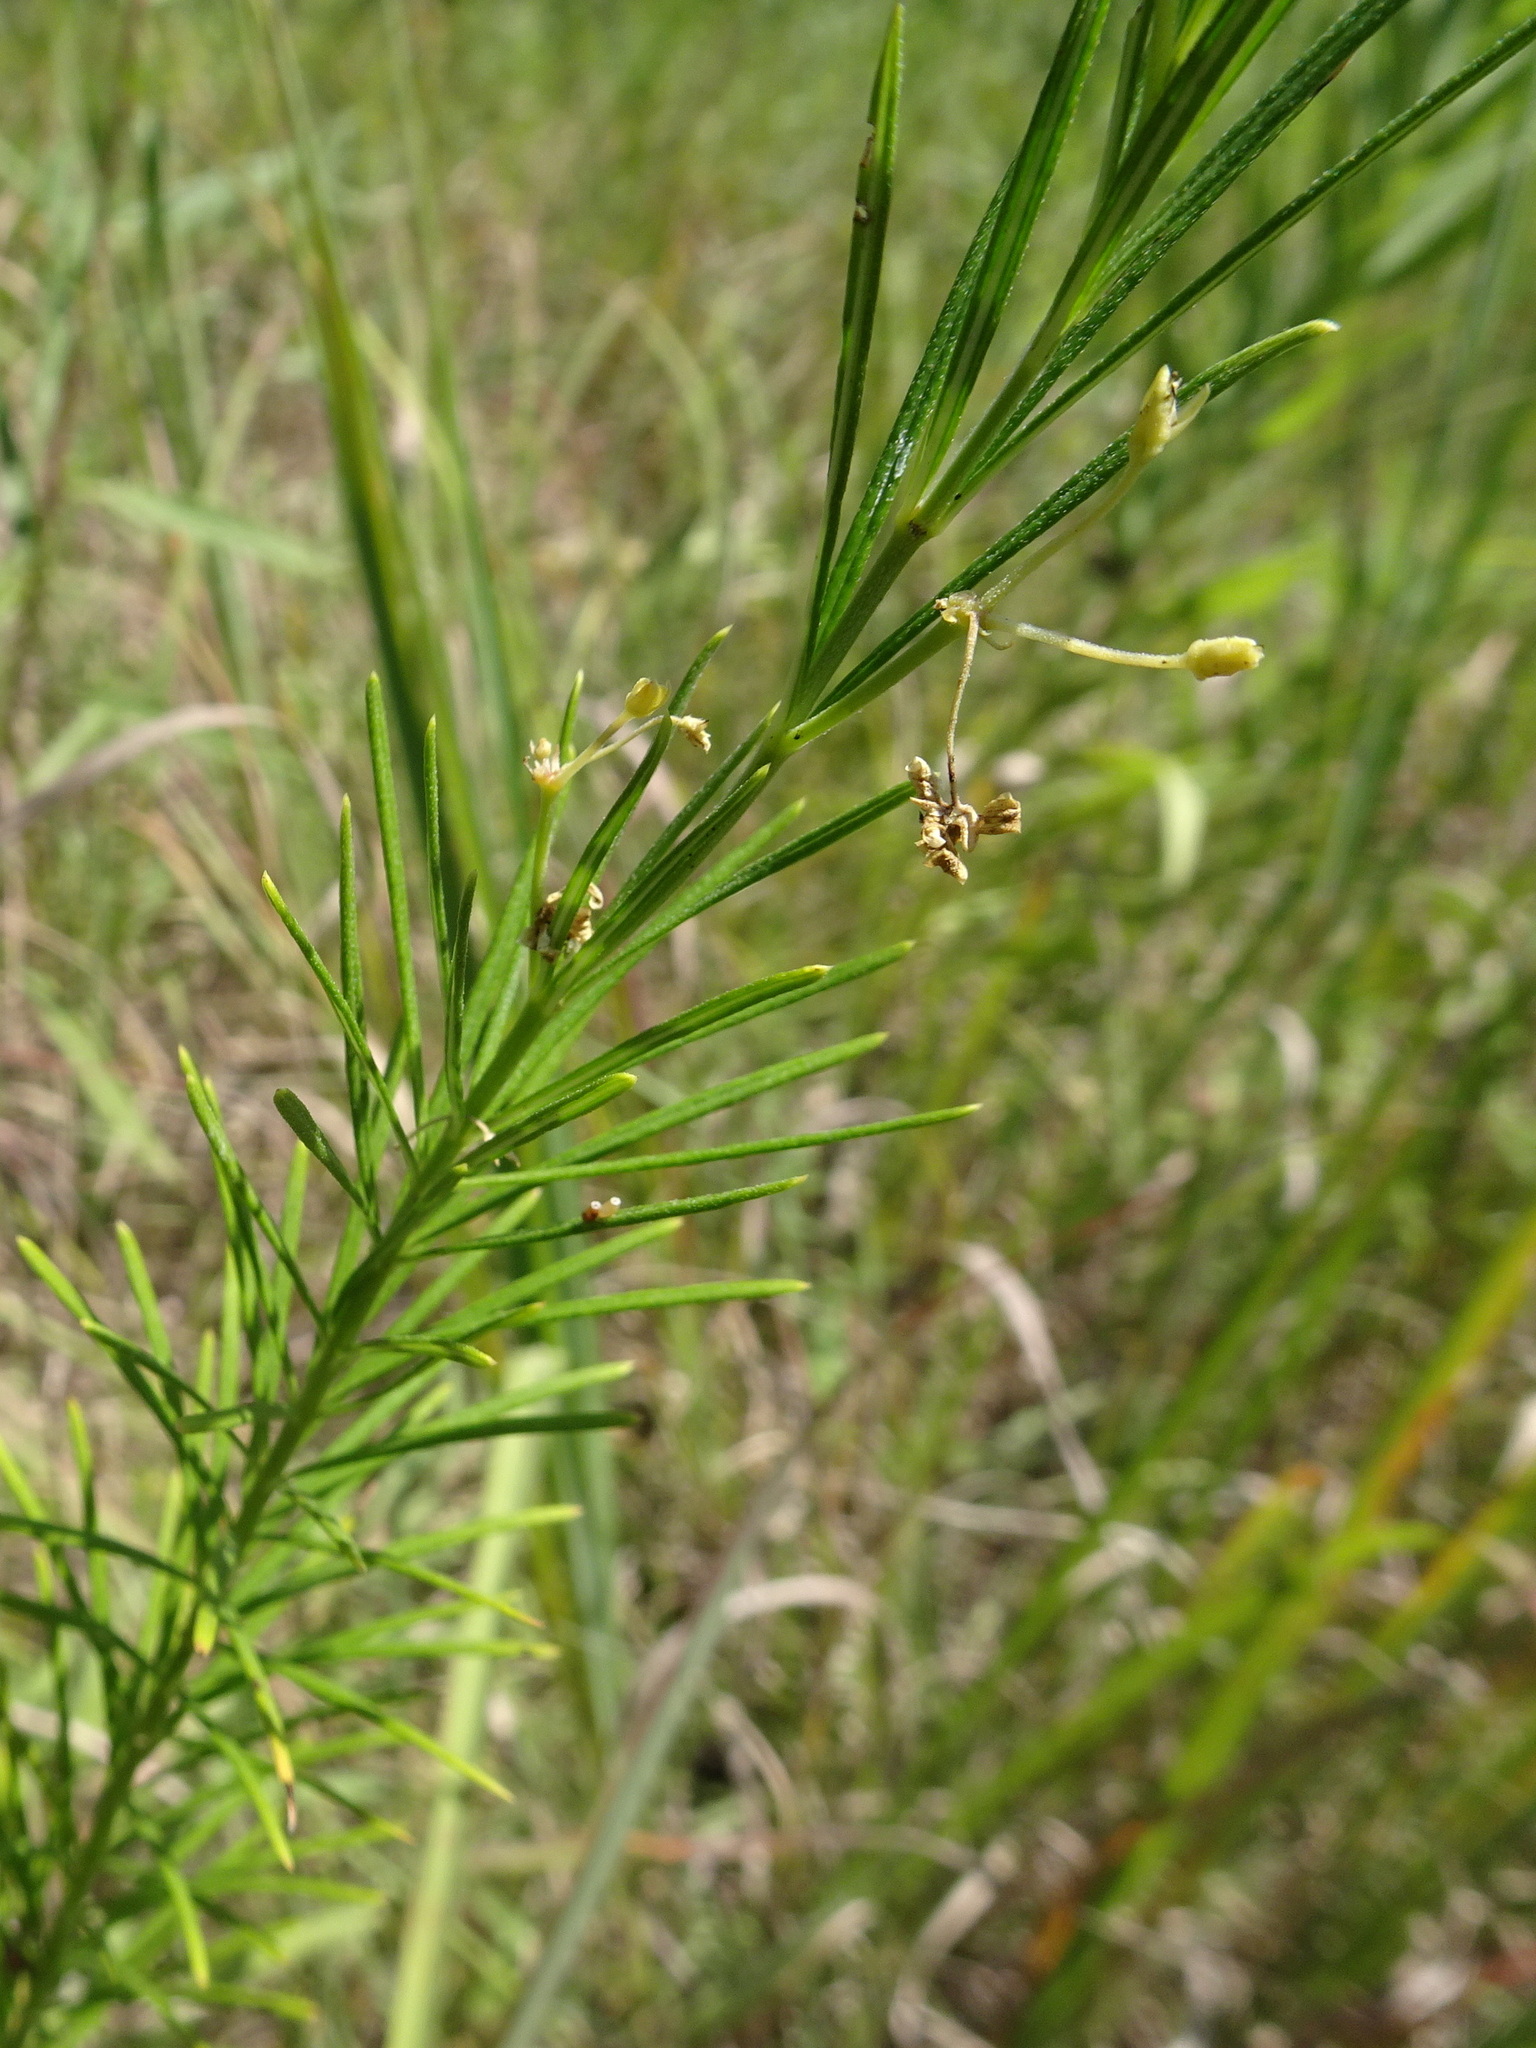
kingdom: Plantae
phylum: Tracheophyta
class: Magnoliopsida
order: Gentianales
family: Apocynaceae
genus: Asclepias
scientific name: Asclepias verticillata
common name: Eastern whorled milkweed
